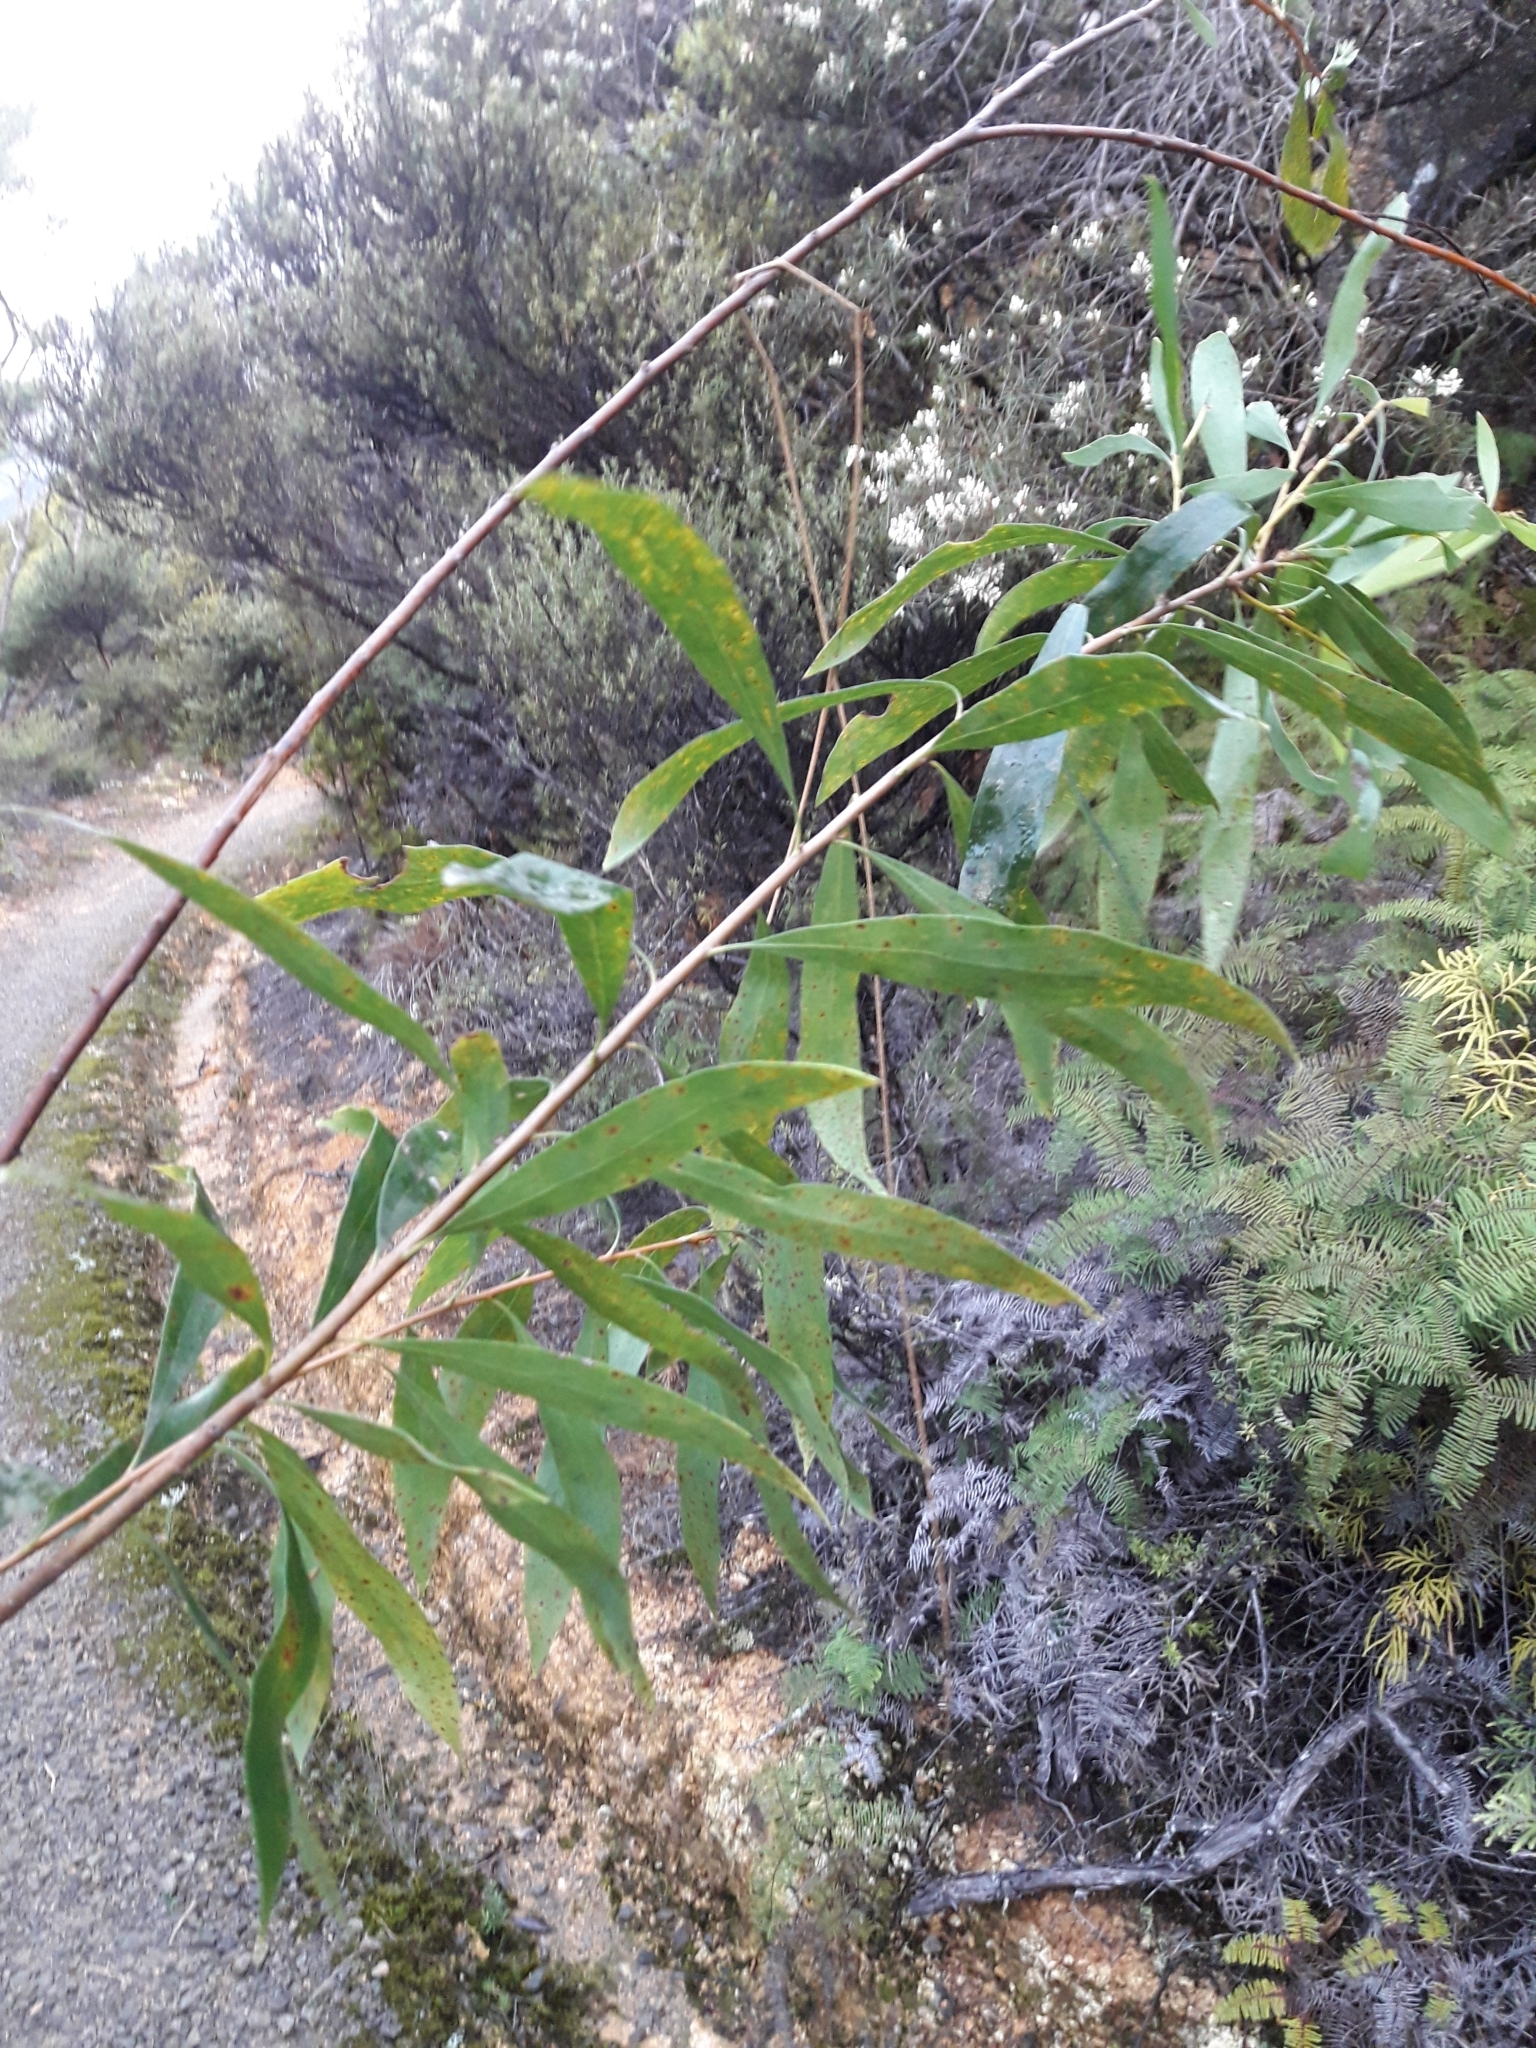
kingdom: Plantae
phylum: Tracheophyta
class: Magnoliopsida
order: Proteales
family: Proteaceae
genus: Hakea
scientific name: Hakea salicifolia
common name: Willow hakea
